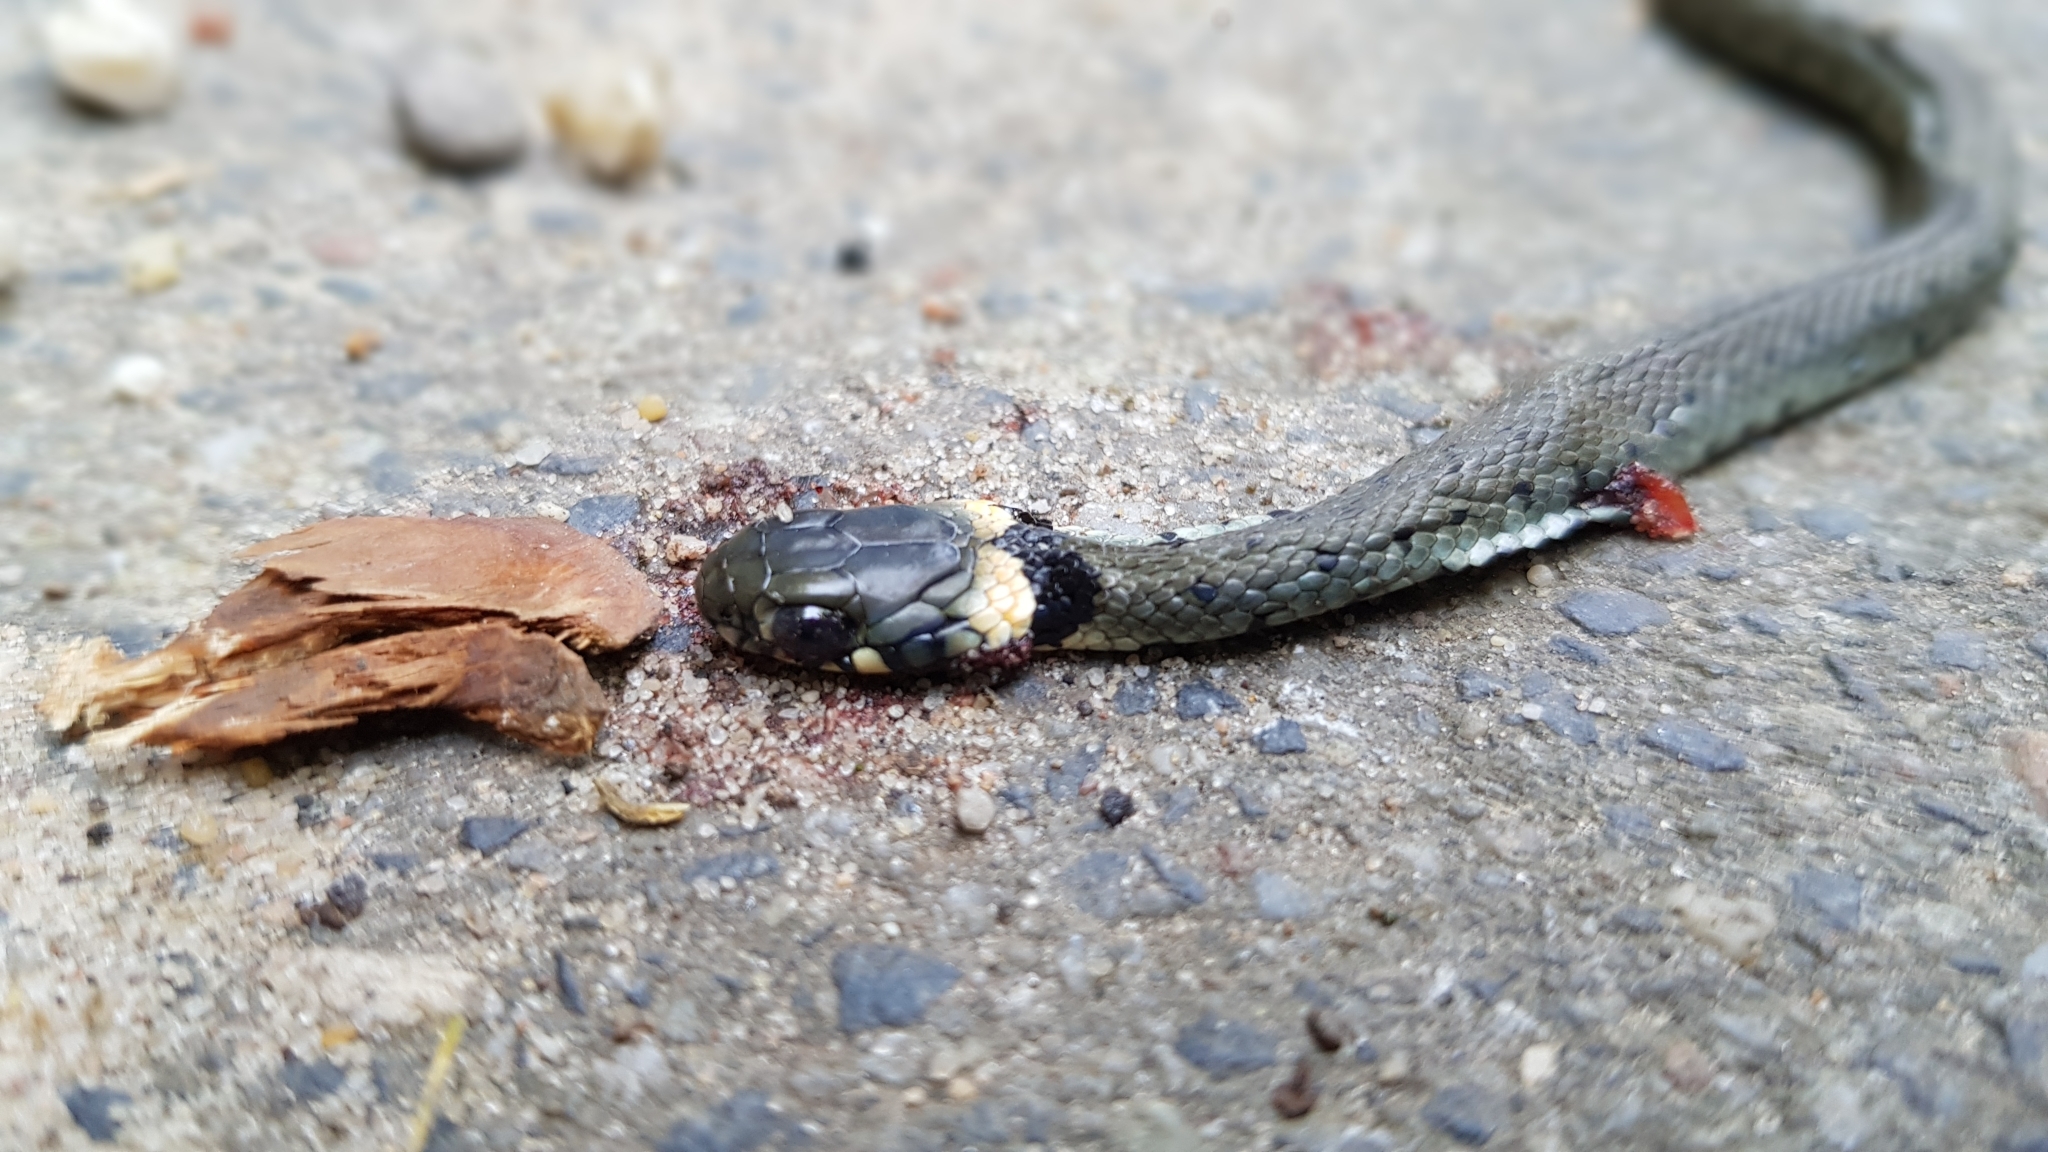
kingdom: Animalia
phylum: Chordata
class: Squamata
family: Colubridae
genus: Natrix
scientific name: Natrix helvetica
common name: Banded grass snake
